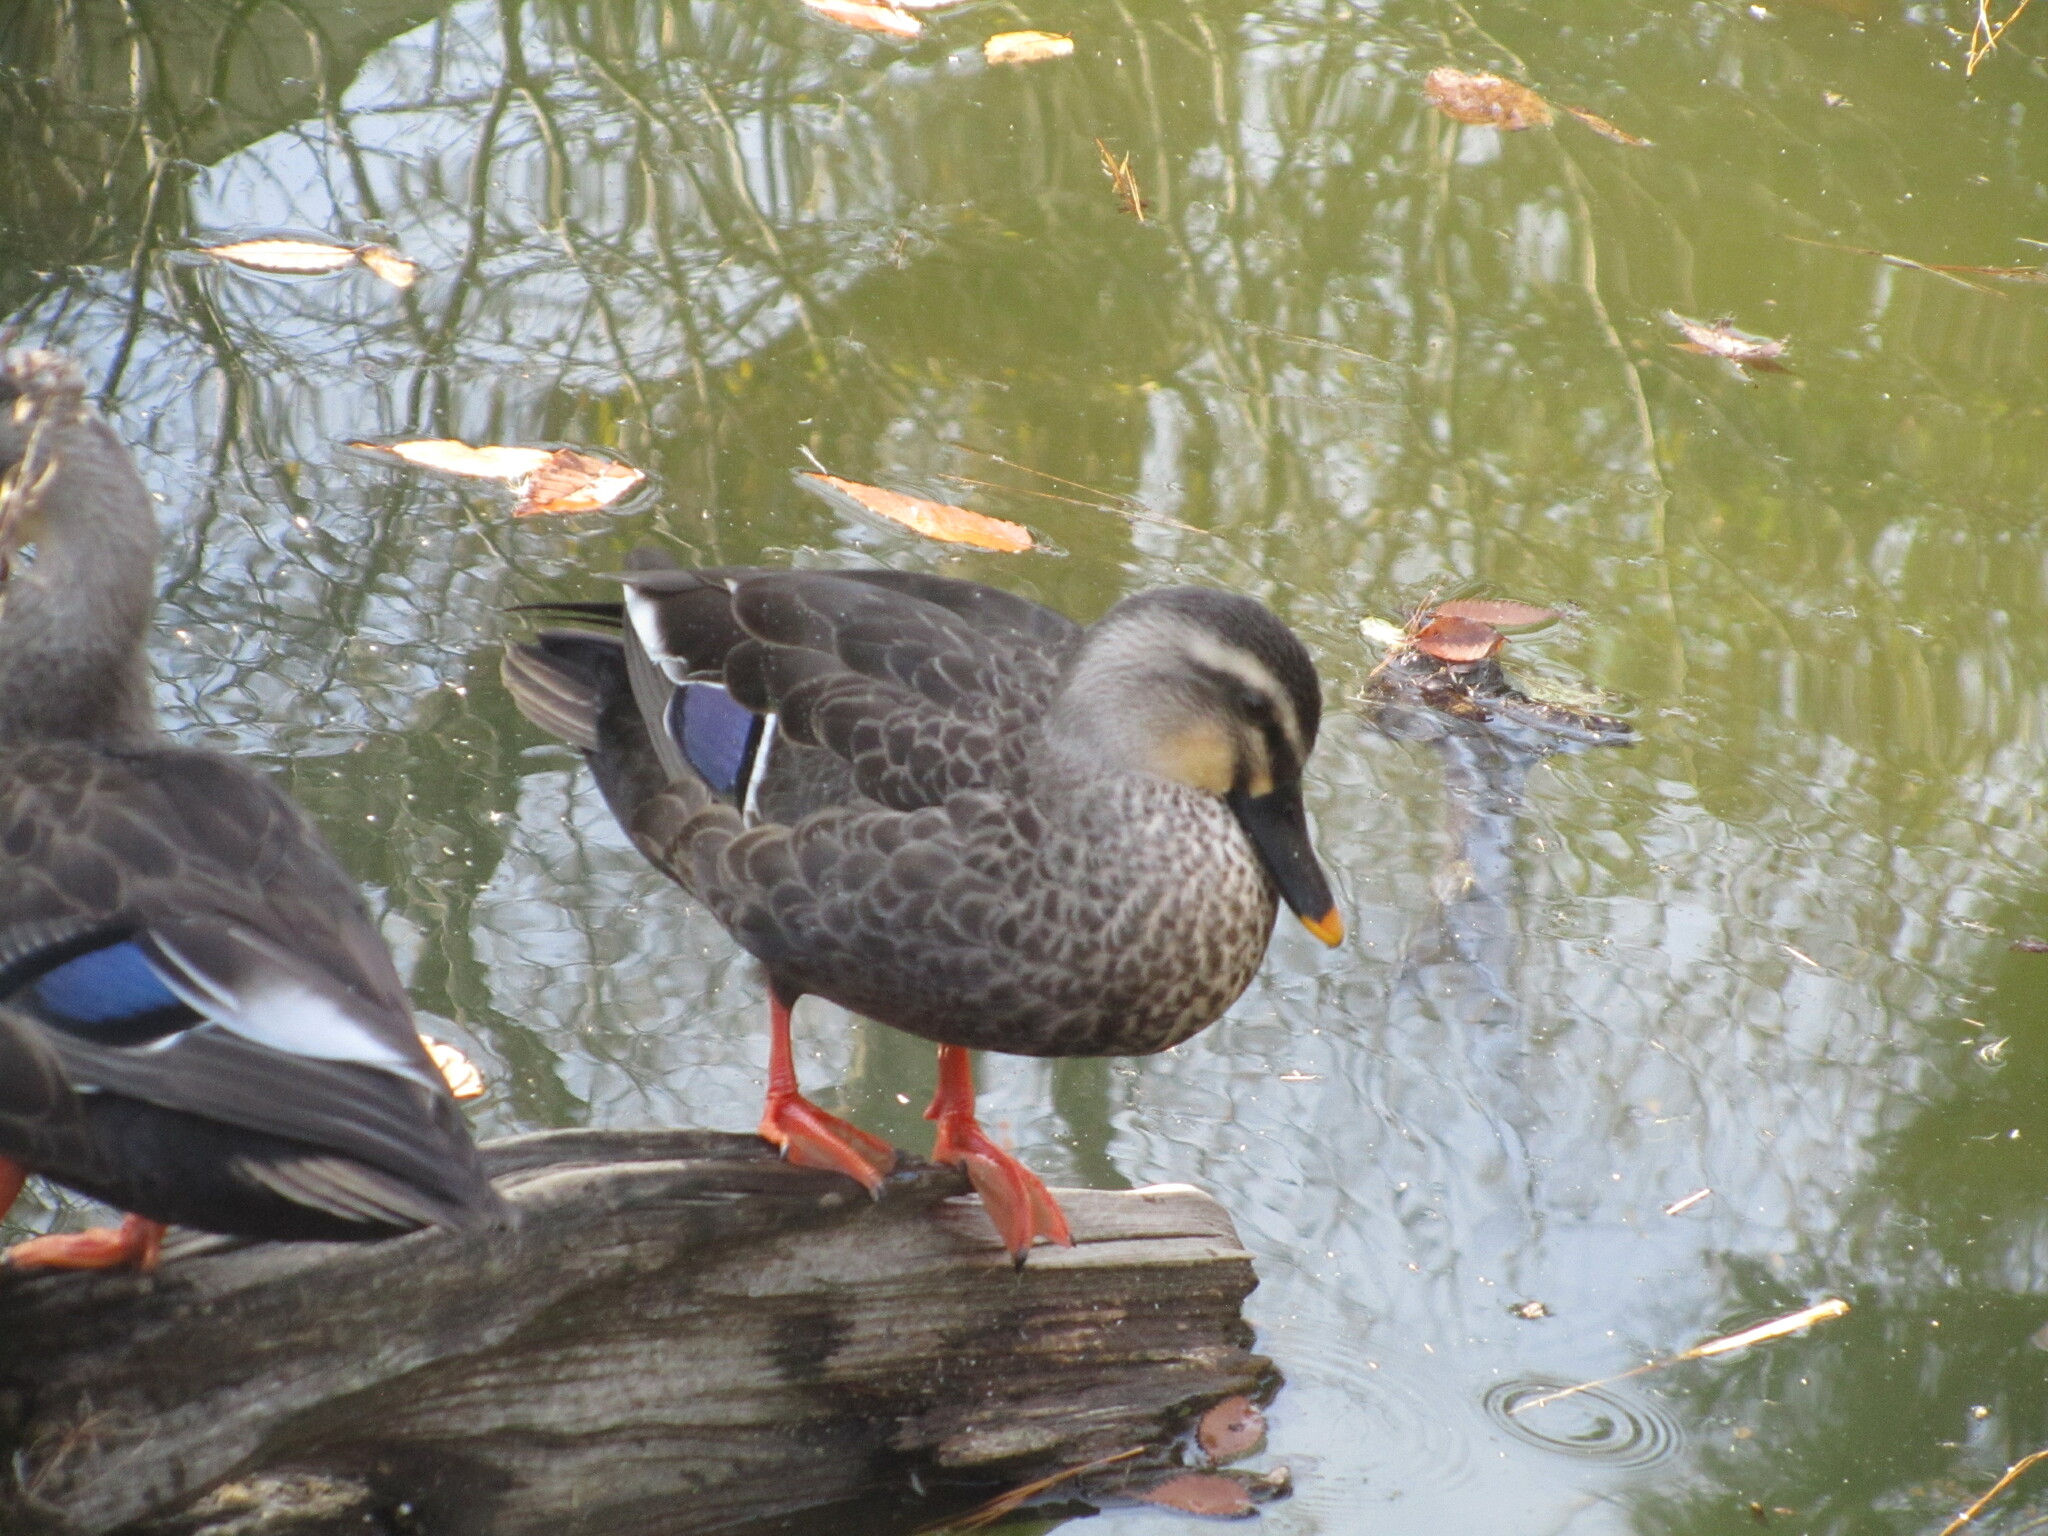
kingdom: Animalia
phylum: Chordata
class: Aves
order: Anseriformes
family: Anatidae
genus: Anas
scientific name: Anas zonorhyncha
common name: Eastern spot-billed duck
